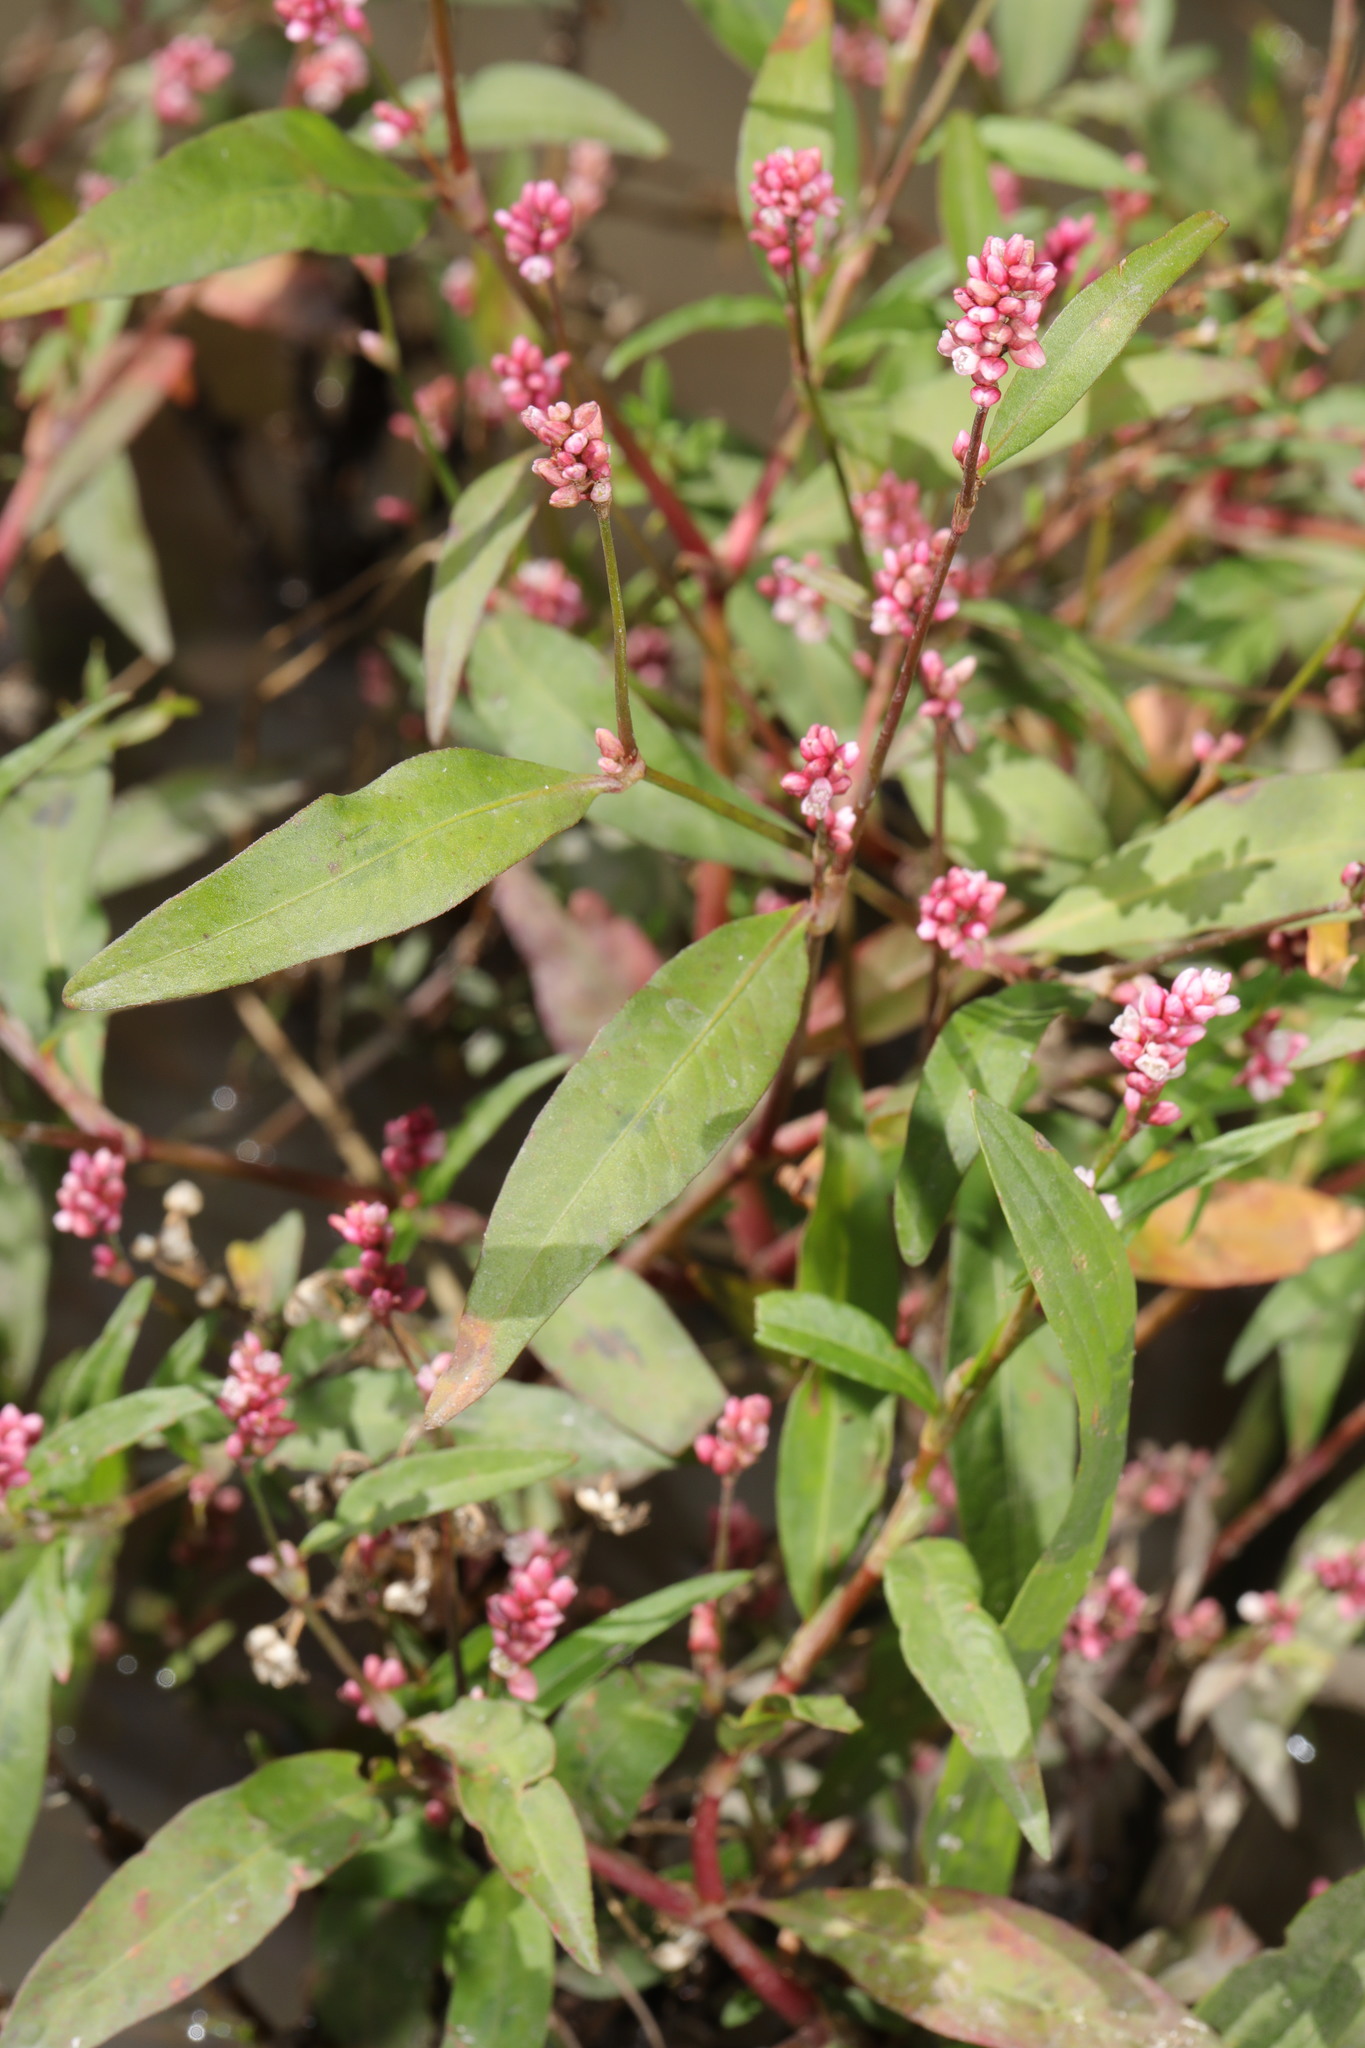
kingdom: Plantae
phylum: Tracheophyta
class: Magnoliopsida
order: Caryophyllales
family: Polygonaceae
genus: Persicaria
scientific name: Persicaria maculosa
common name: Redshank
